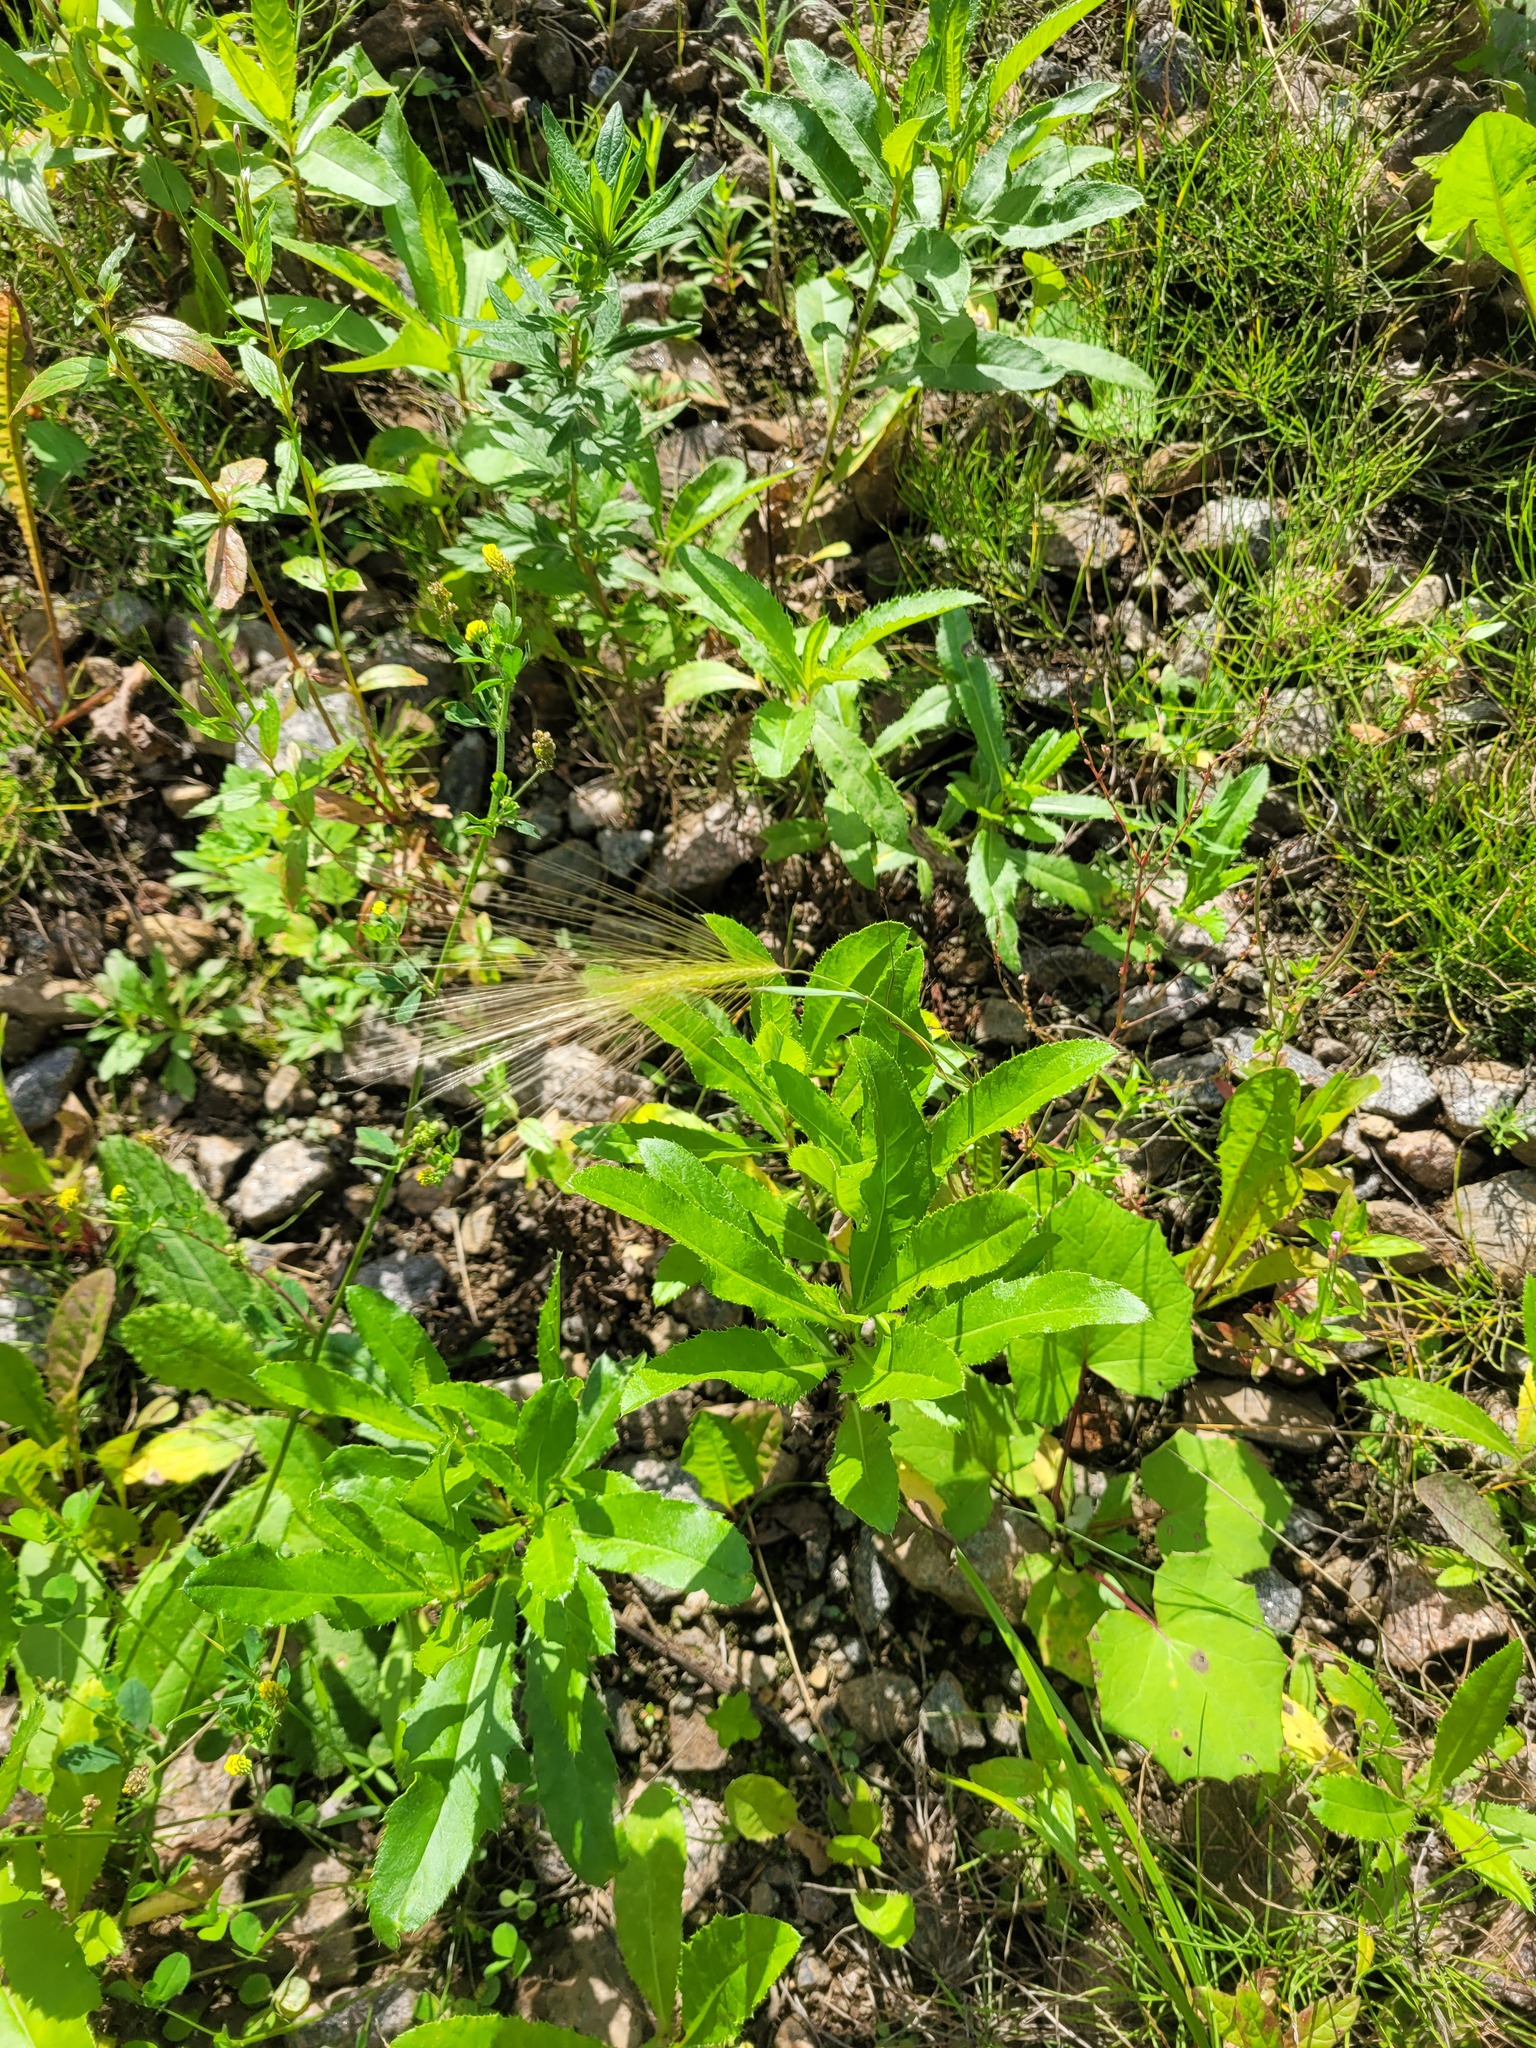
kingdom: Plantae
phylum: Tracheophyta
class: Liliopsida
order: Poales
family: Poaceae
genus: Hordeum
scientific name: Hordeum jubatum
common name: Foxtail barley
